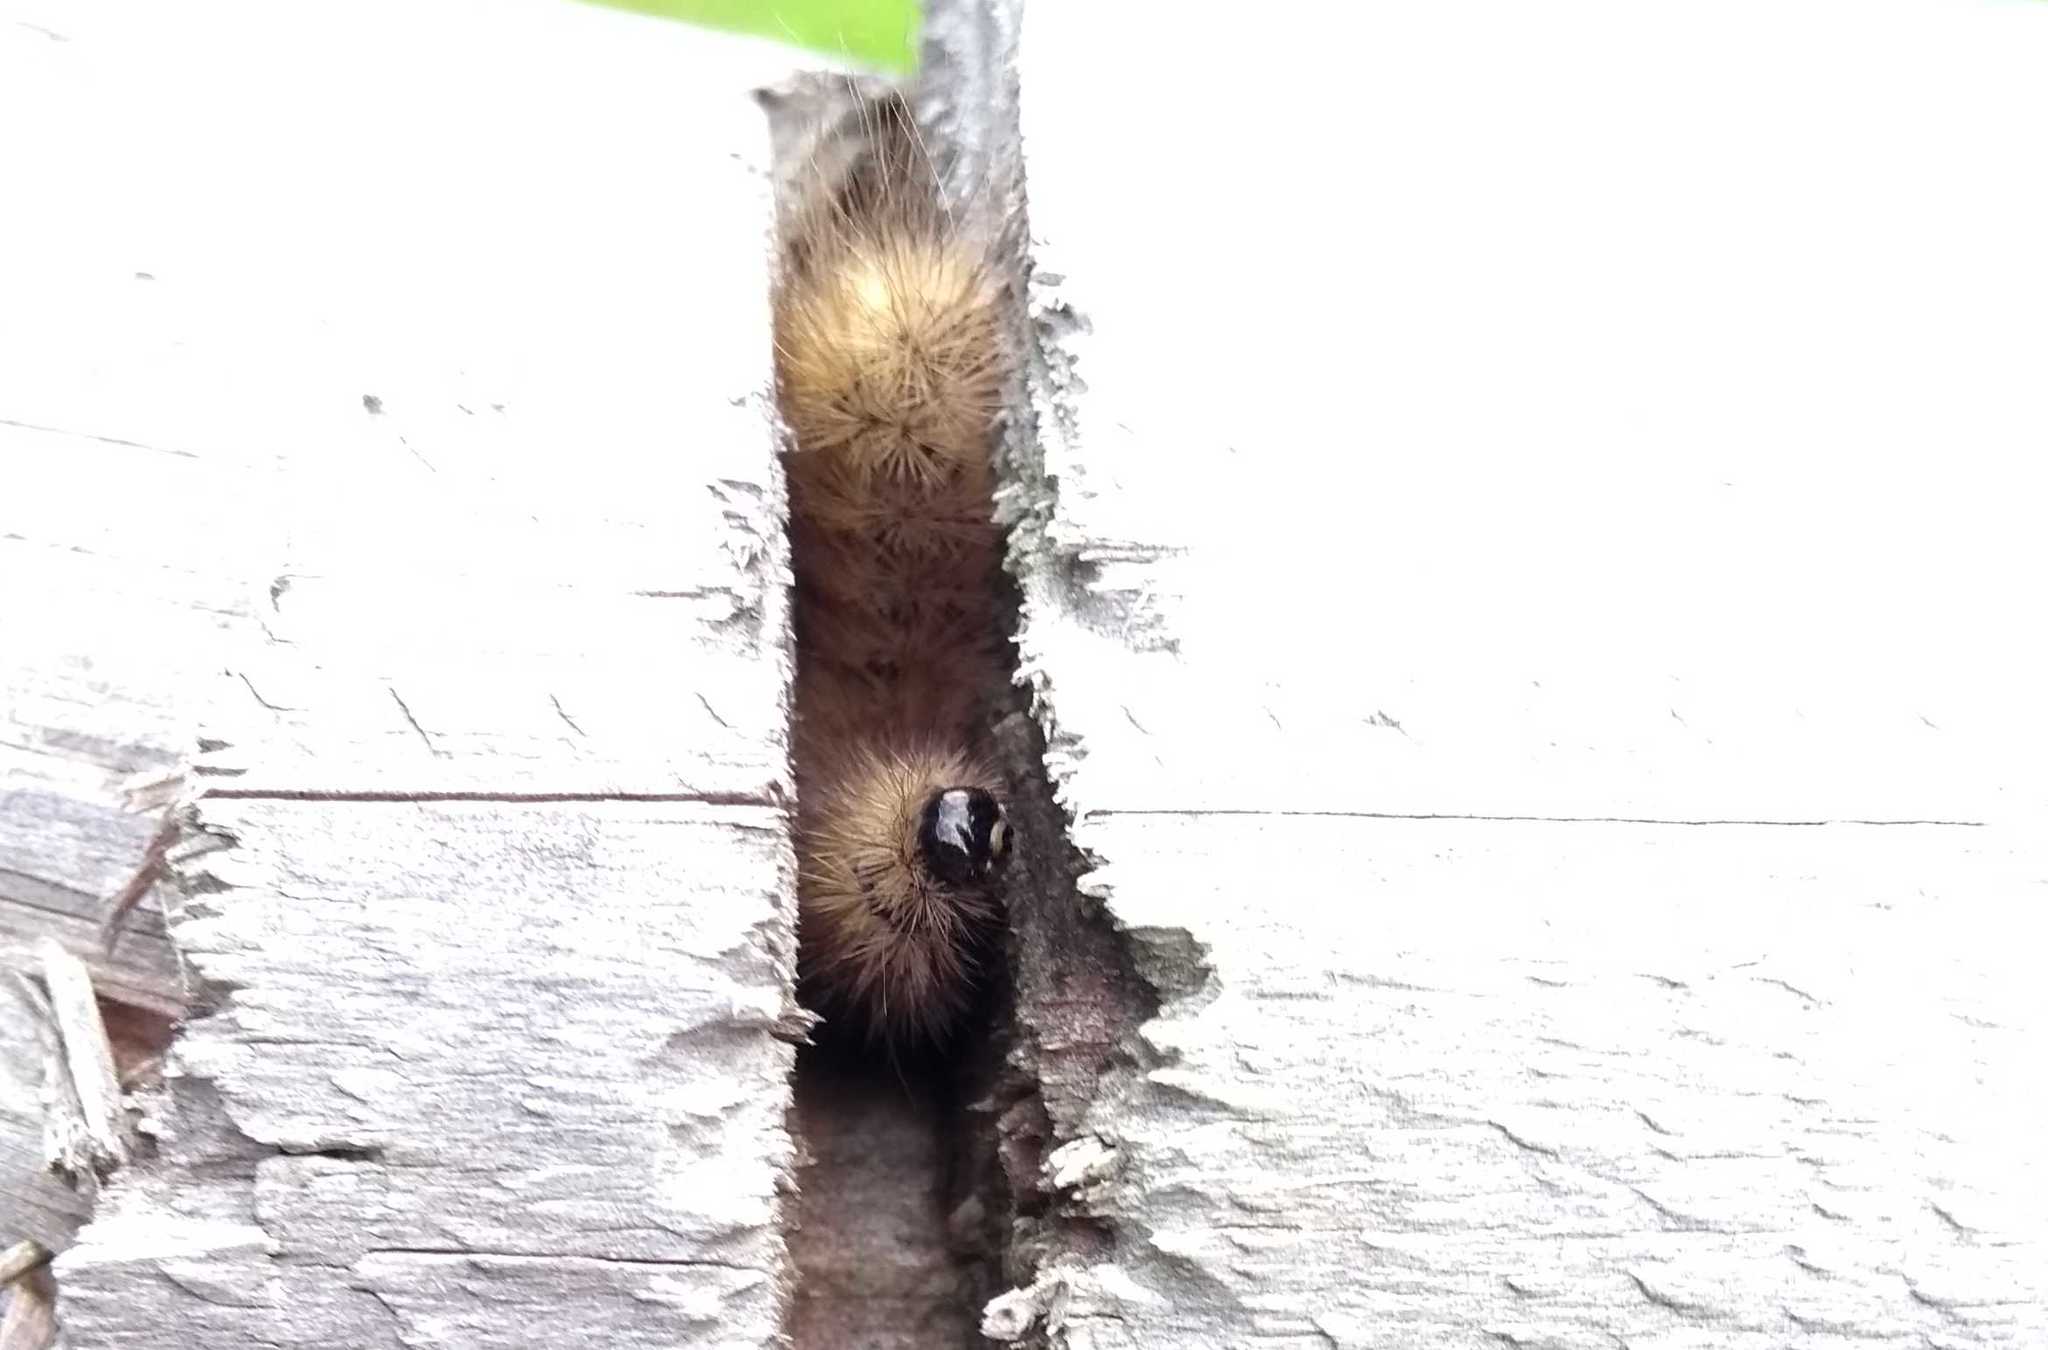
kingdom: Animalia
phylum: Arthropoda
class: Insecta
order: Lepidoptera
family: Erebidae
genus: Phragmatobia
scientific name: Phragmatobia fuliginosa
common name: Ruby tiger
